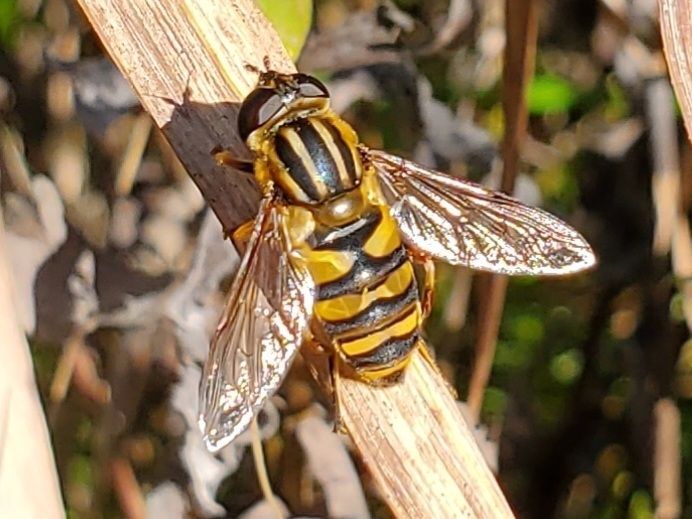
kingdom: Animalia
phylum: Arthropoda
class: Insecta
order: Diptera
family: Syrphidae
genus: Helophilus
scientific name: Helophilus fasciatus
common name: Narrow-headed marsh fly
